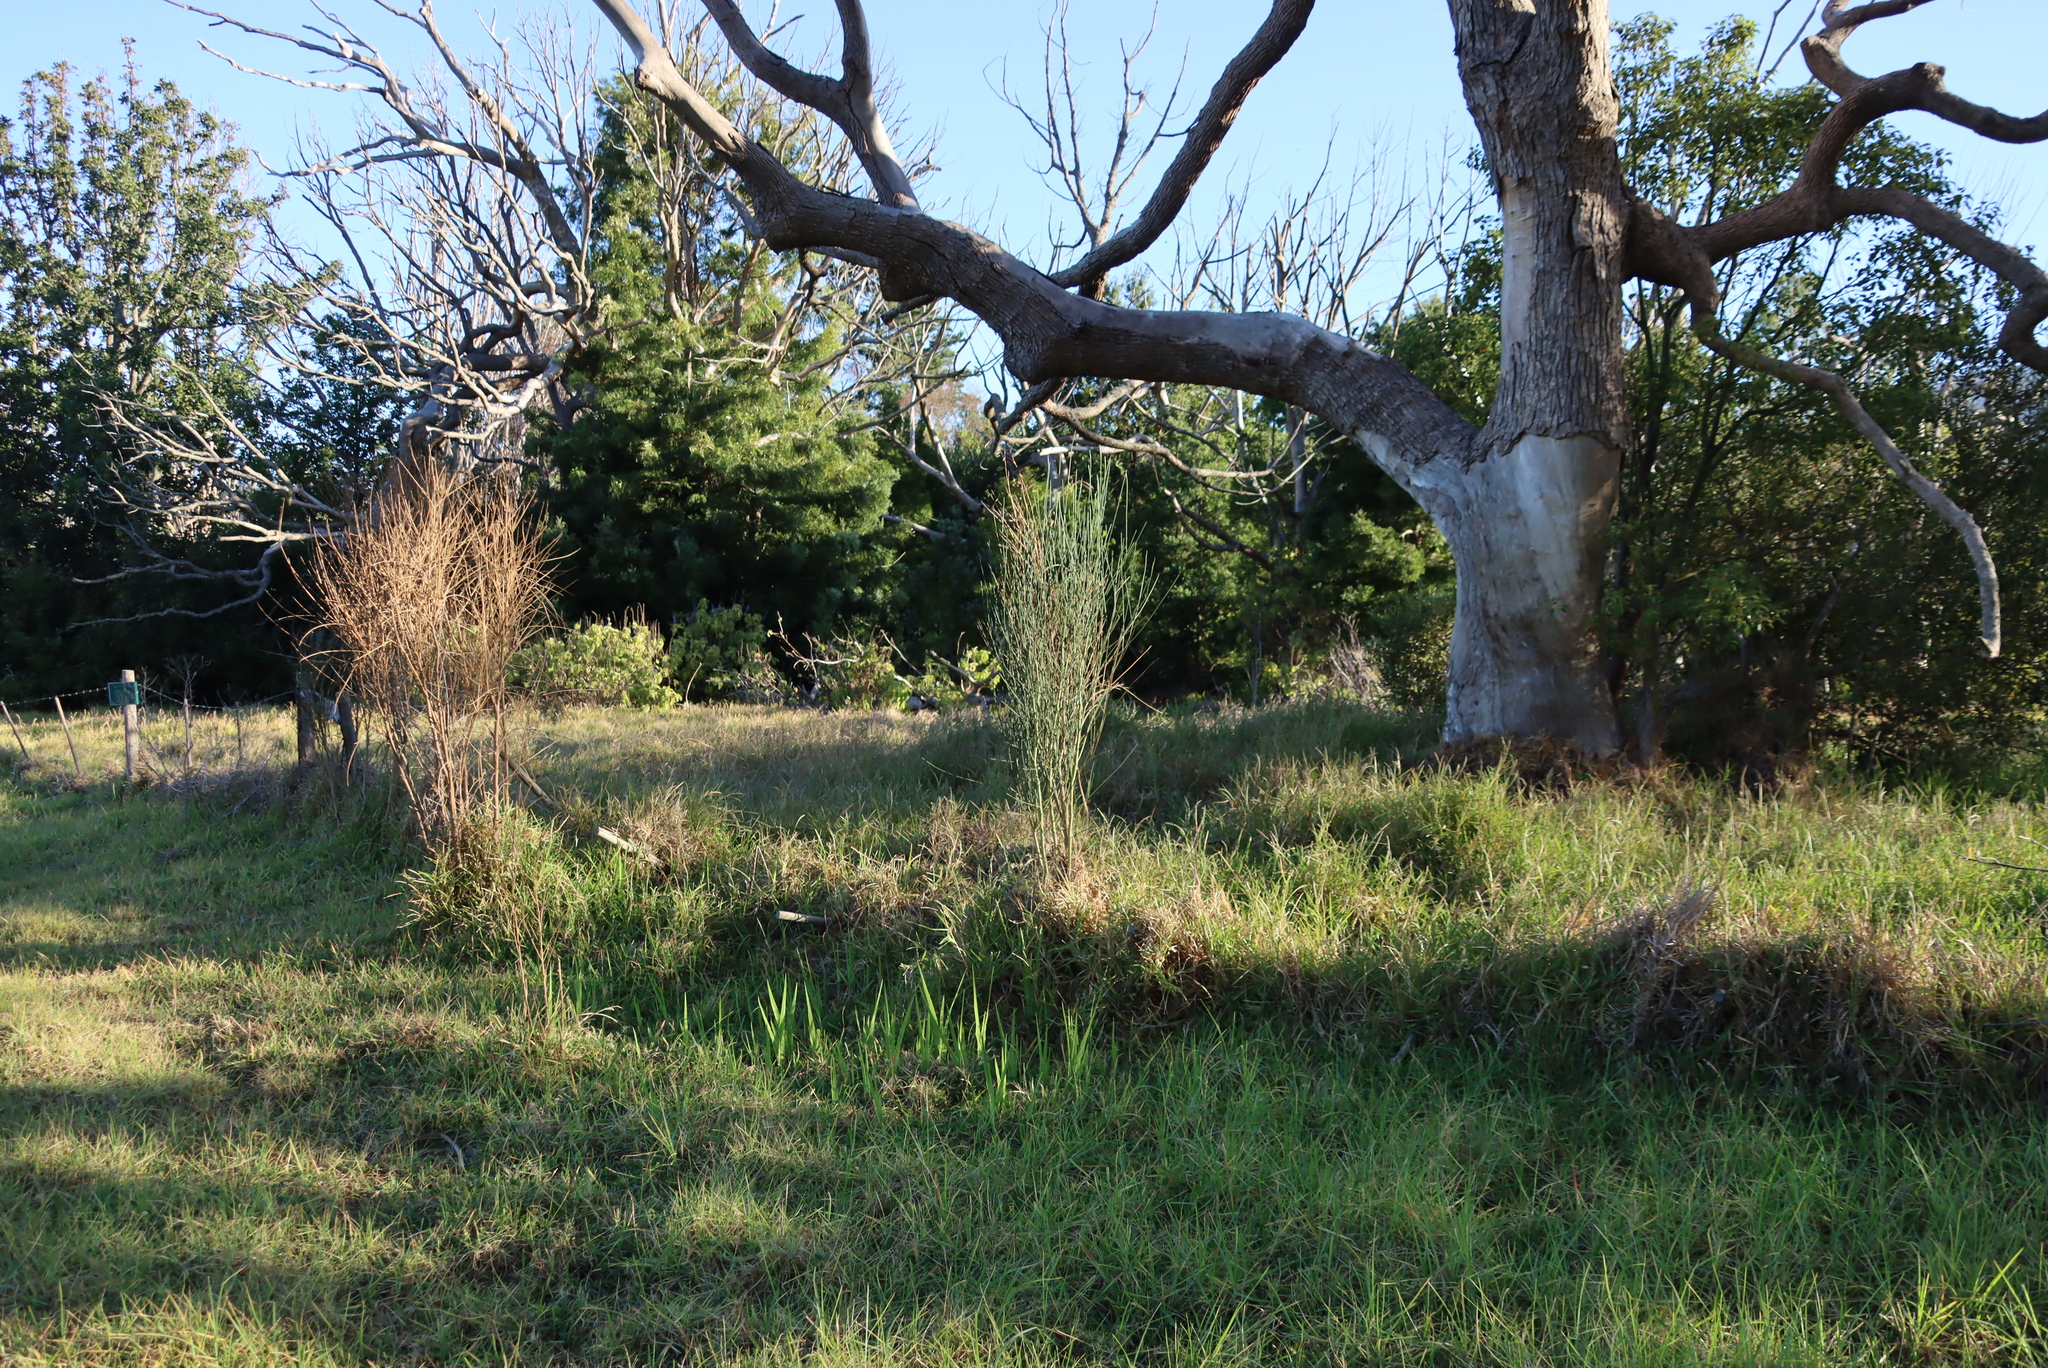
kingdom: Plantae
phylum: Tracheophyta
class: Magnoliopsida
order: Fabales
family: Fabaceae
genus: Spartium
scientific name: Spartium junceum
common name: Spanish broom
